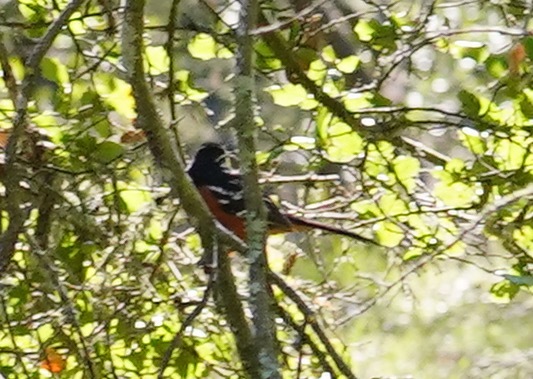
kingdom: Animalia
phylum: Chordata
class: Aves
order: Passeriformes
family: Passerellidae
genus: Pipilo
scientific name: Pipilo maculatus
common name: Spotted towhee
